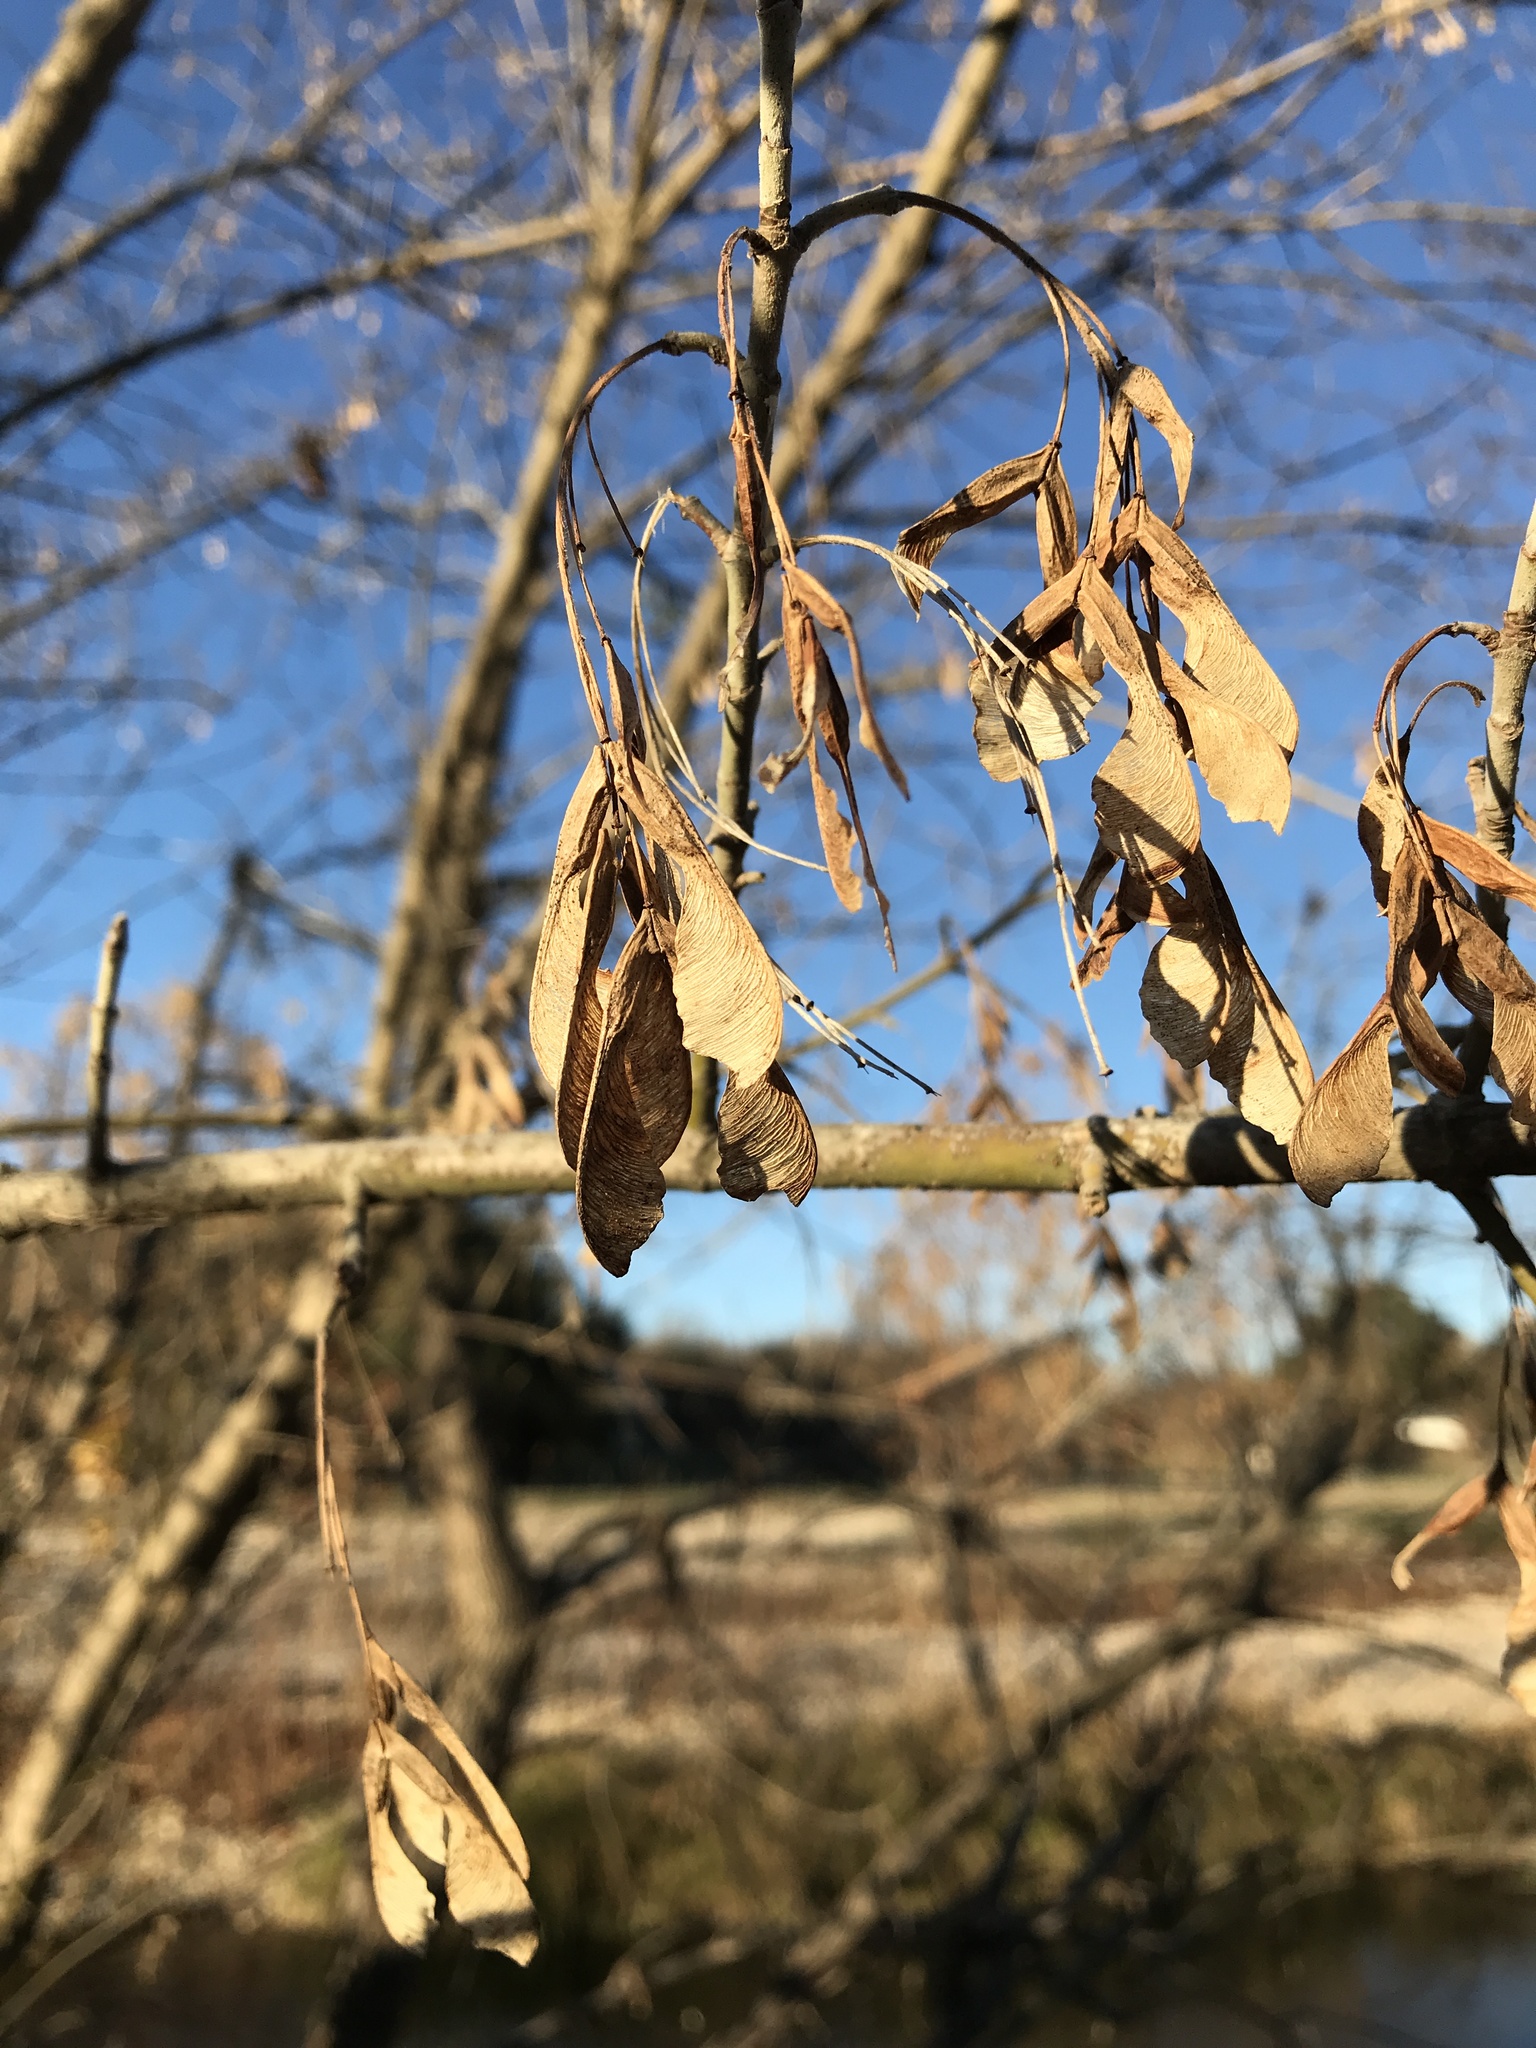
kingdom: Plantae
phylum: Tracheophyta
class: Magnoliopsida
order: Sapindales
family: Sapindaceae
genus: Acer
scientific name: Acer negundo
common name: Ashleaf maple
